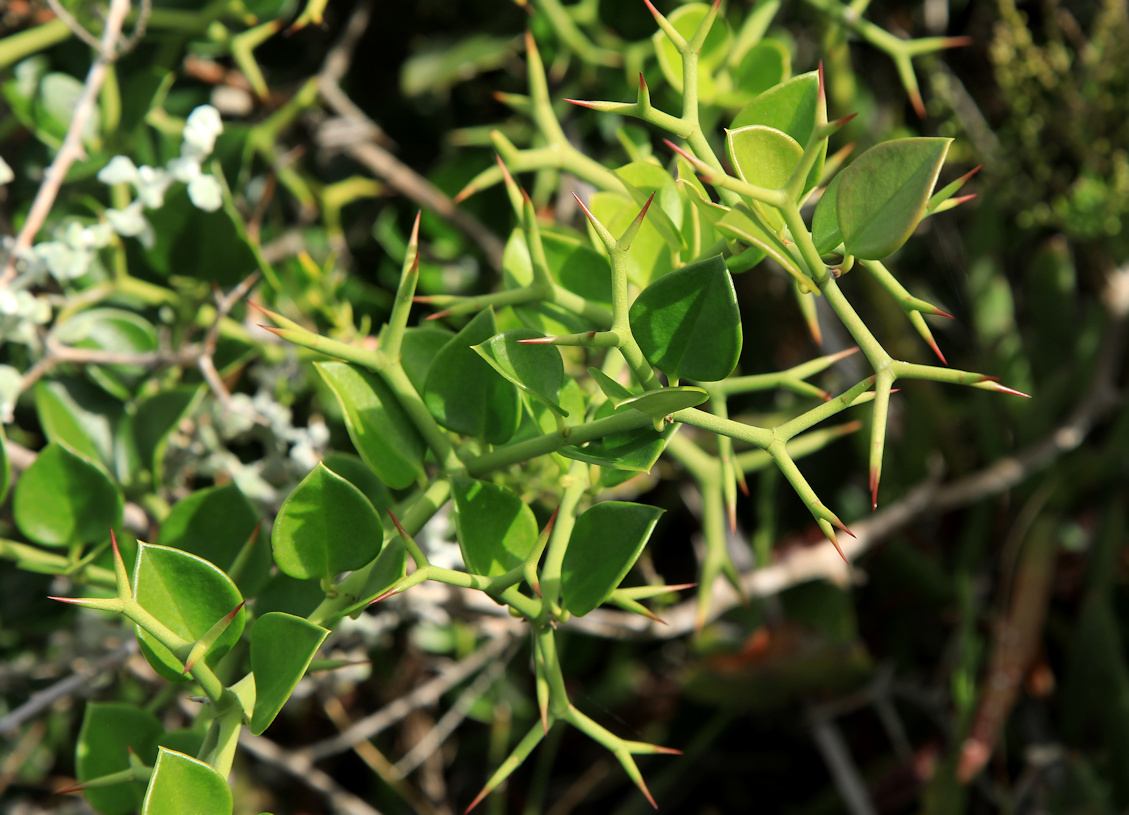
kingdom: Plantae
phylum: Tracheophyta
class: Magnoliopsida
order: Gentianales
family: Apocynaceae
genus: Carissa
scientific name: Carissa bispinosa
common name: Forest num-num
